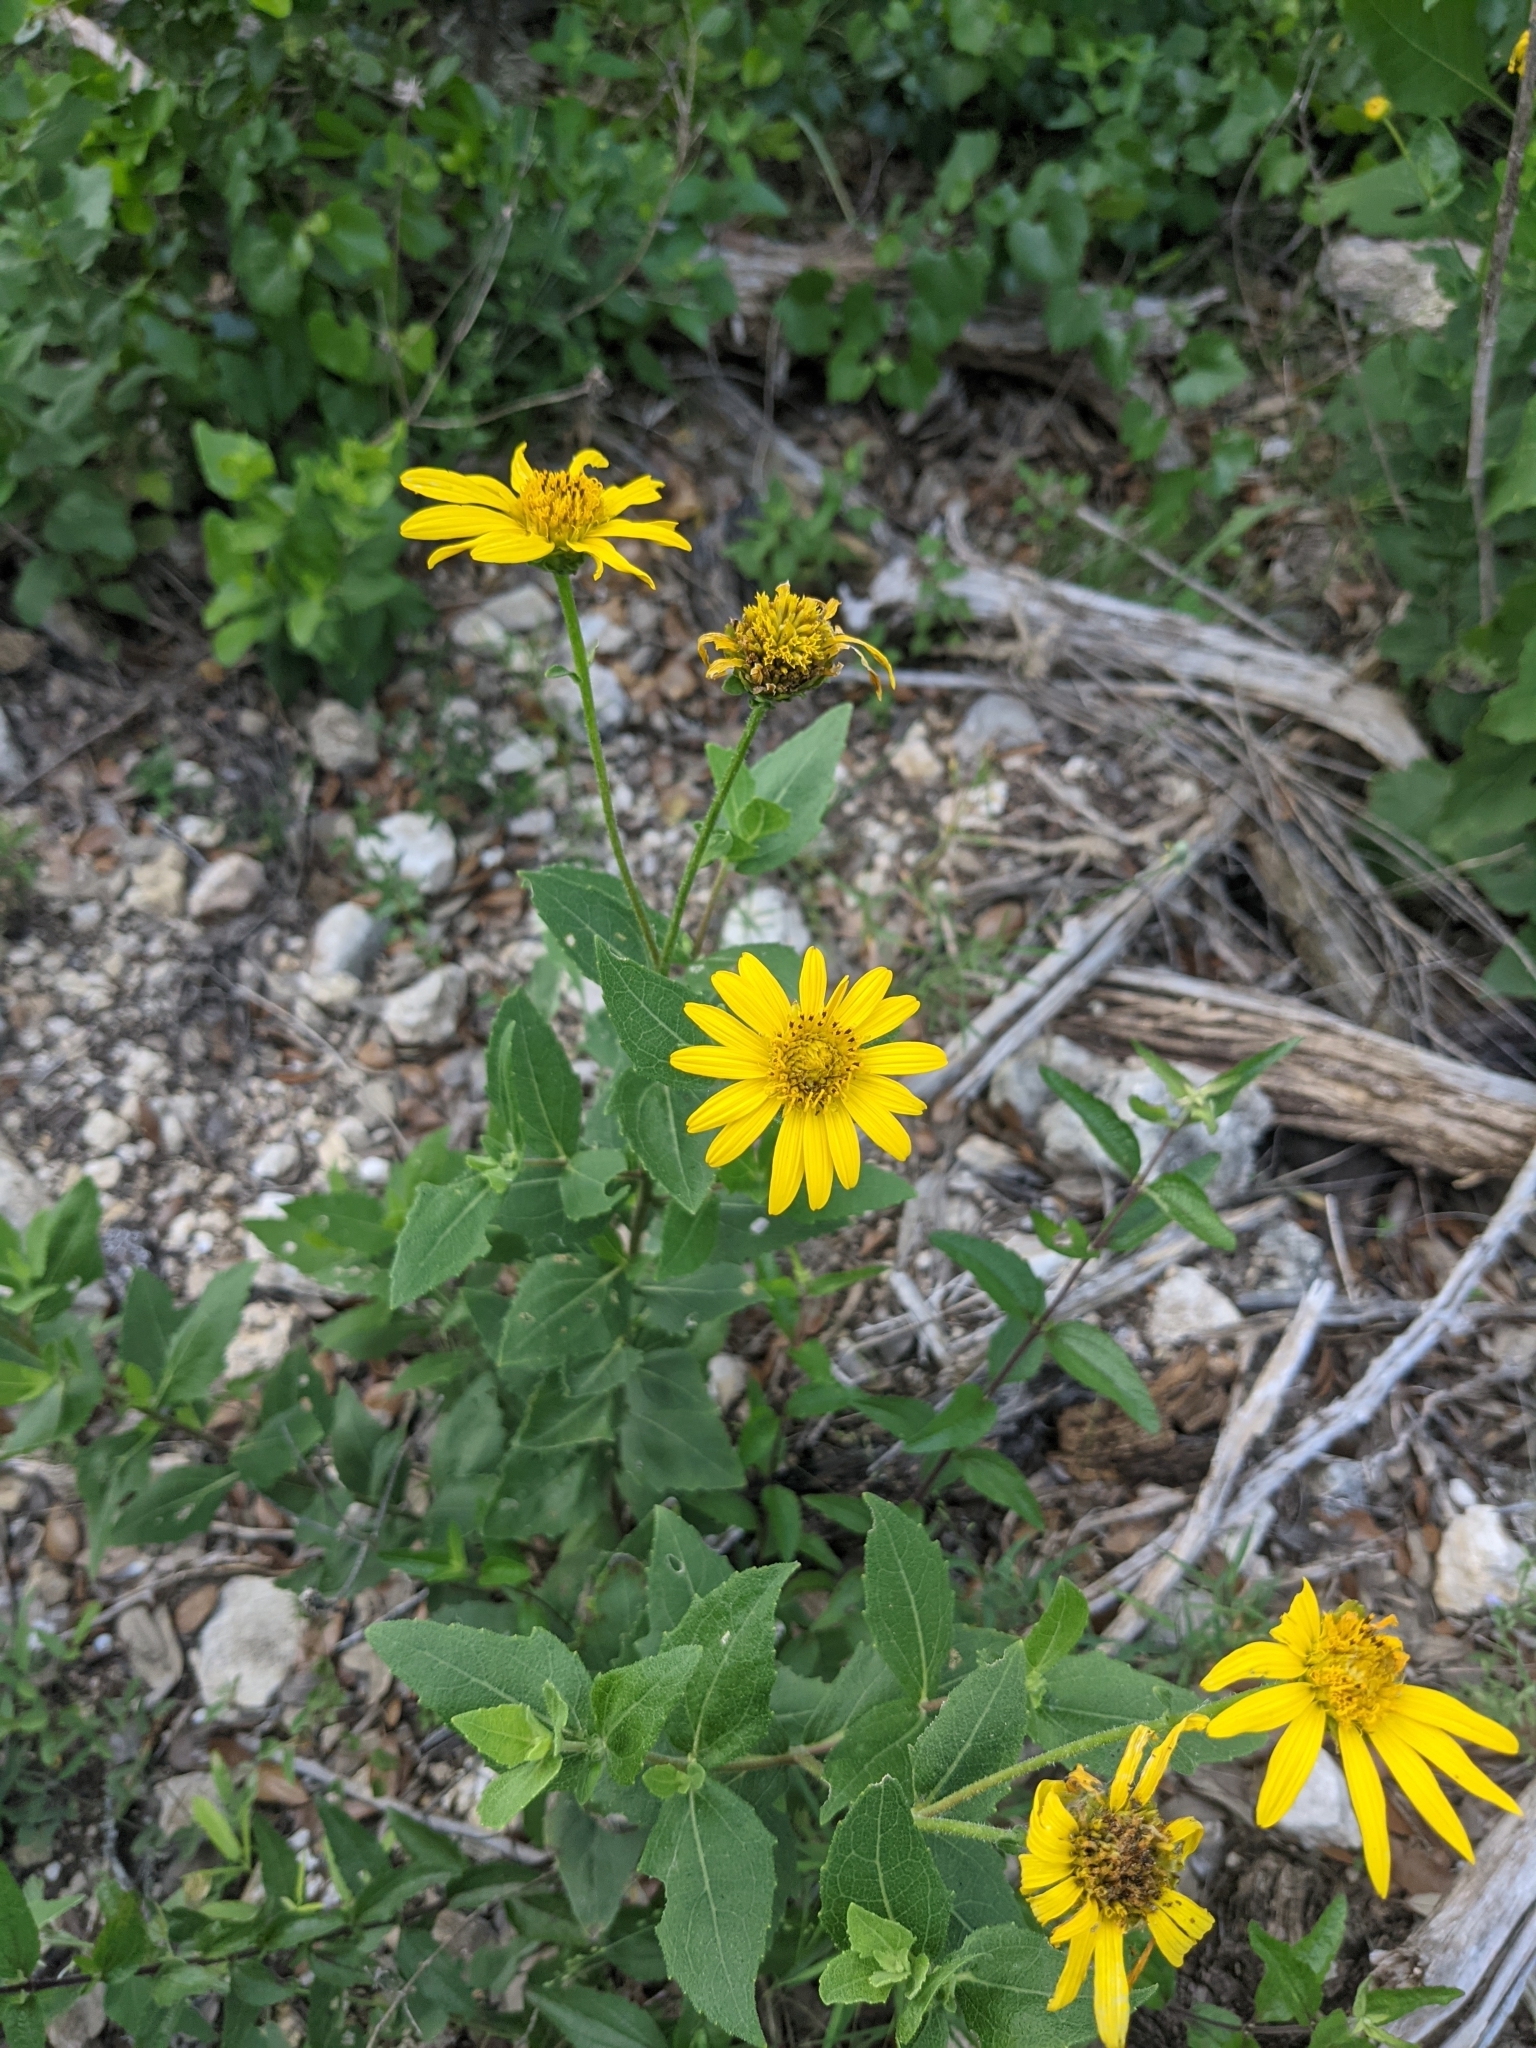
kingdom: Plantae
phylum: Tracheophyta
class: Magnoliopsida
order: Asterales
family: Asteraceae
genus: Verbesina
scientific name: Verbesina lindheimeri
